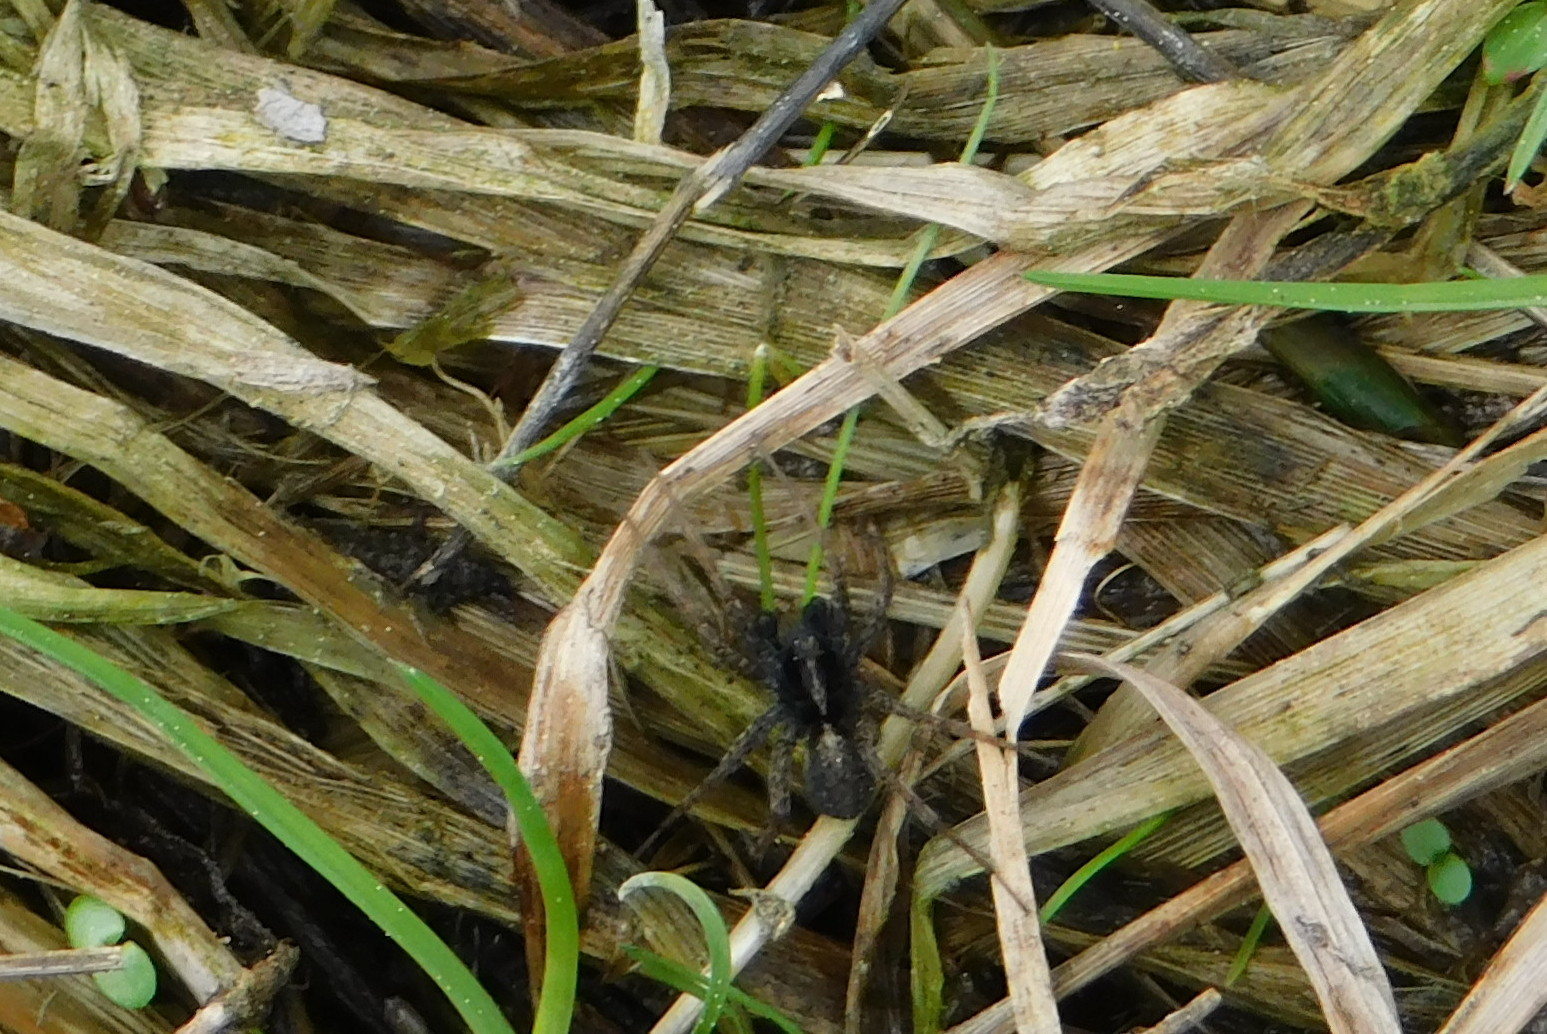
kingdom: Animalia
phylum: Arthropoda
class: Arachnida
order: Araneae
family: Lycosidae
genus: Pardosa
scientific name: Pardosa amentata
